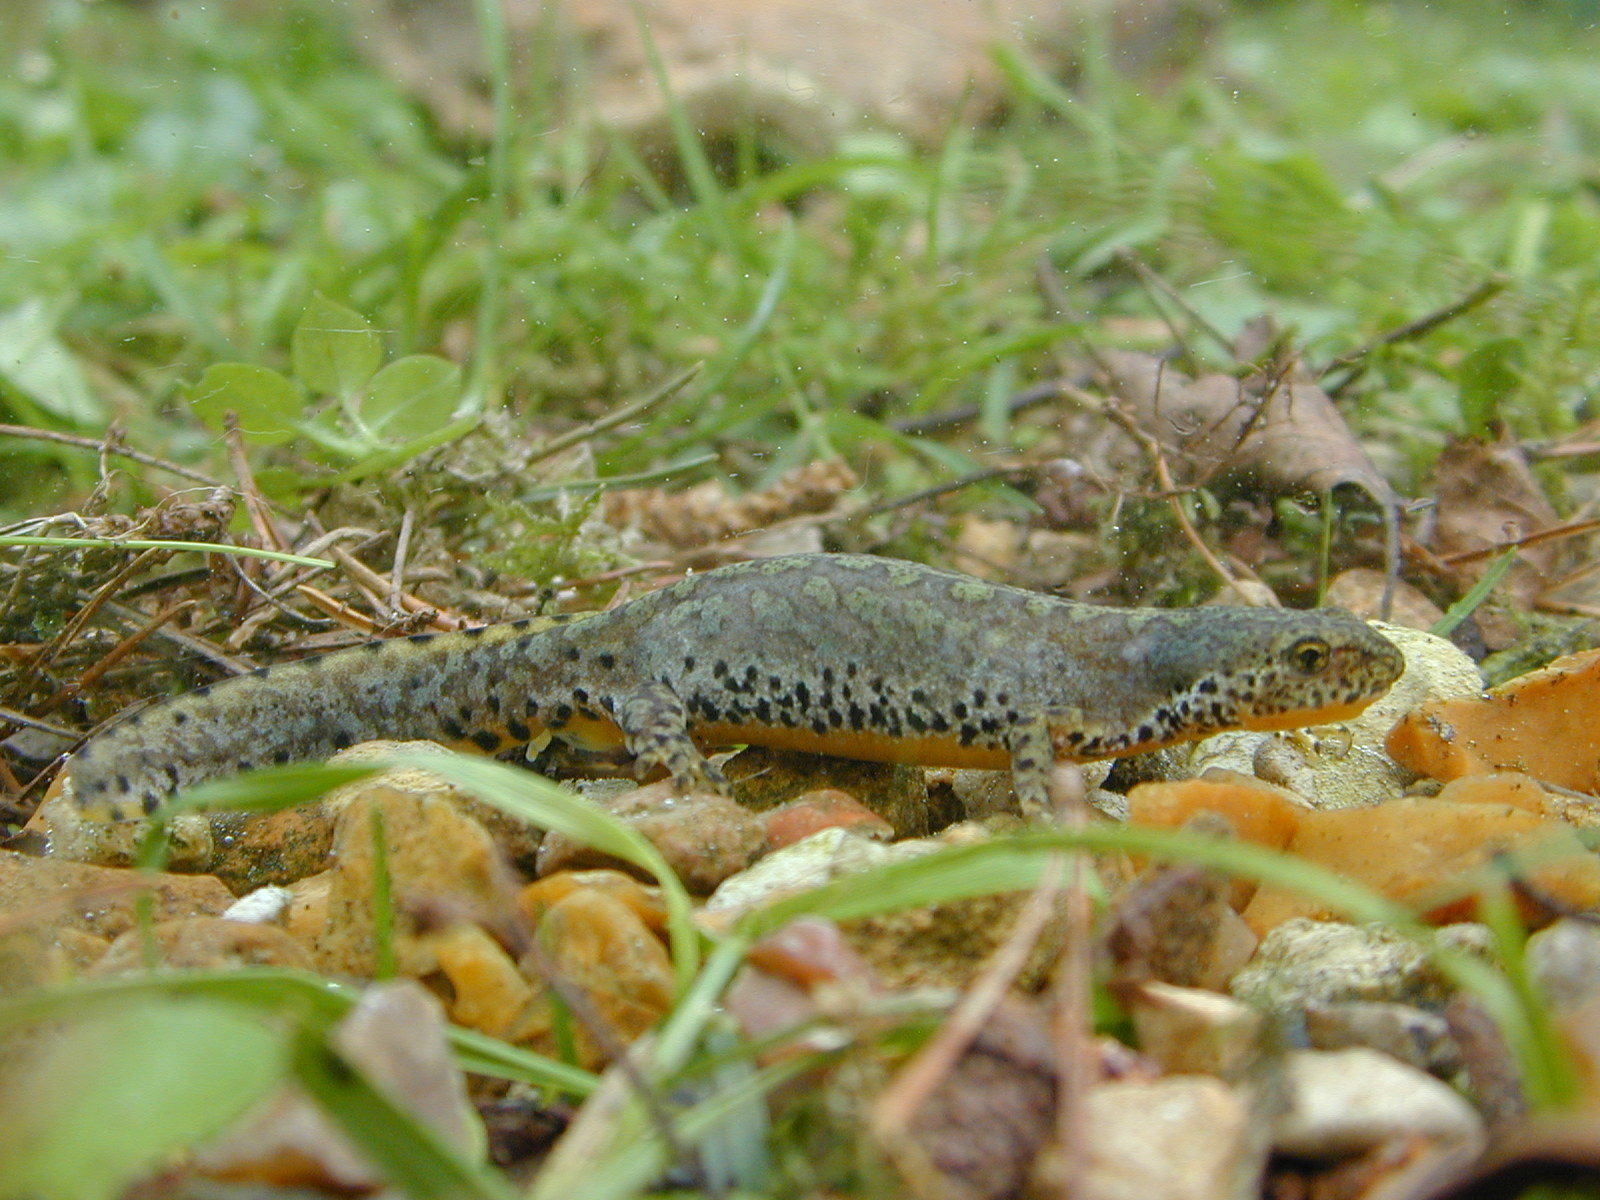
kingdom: Animalia
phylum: Chordata
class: Amphibia
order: Caudata
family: Salamandridae
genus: Ichthyosaura
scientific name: Ichthyosaura alpestris
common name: Alpine newt
